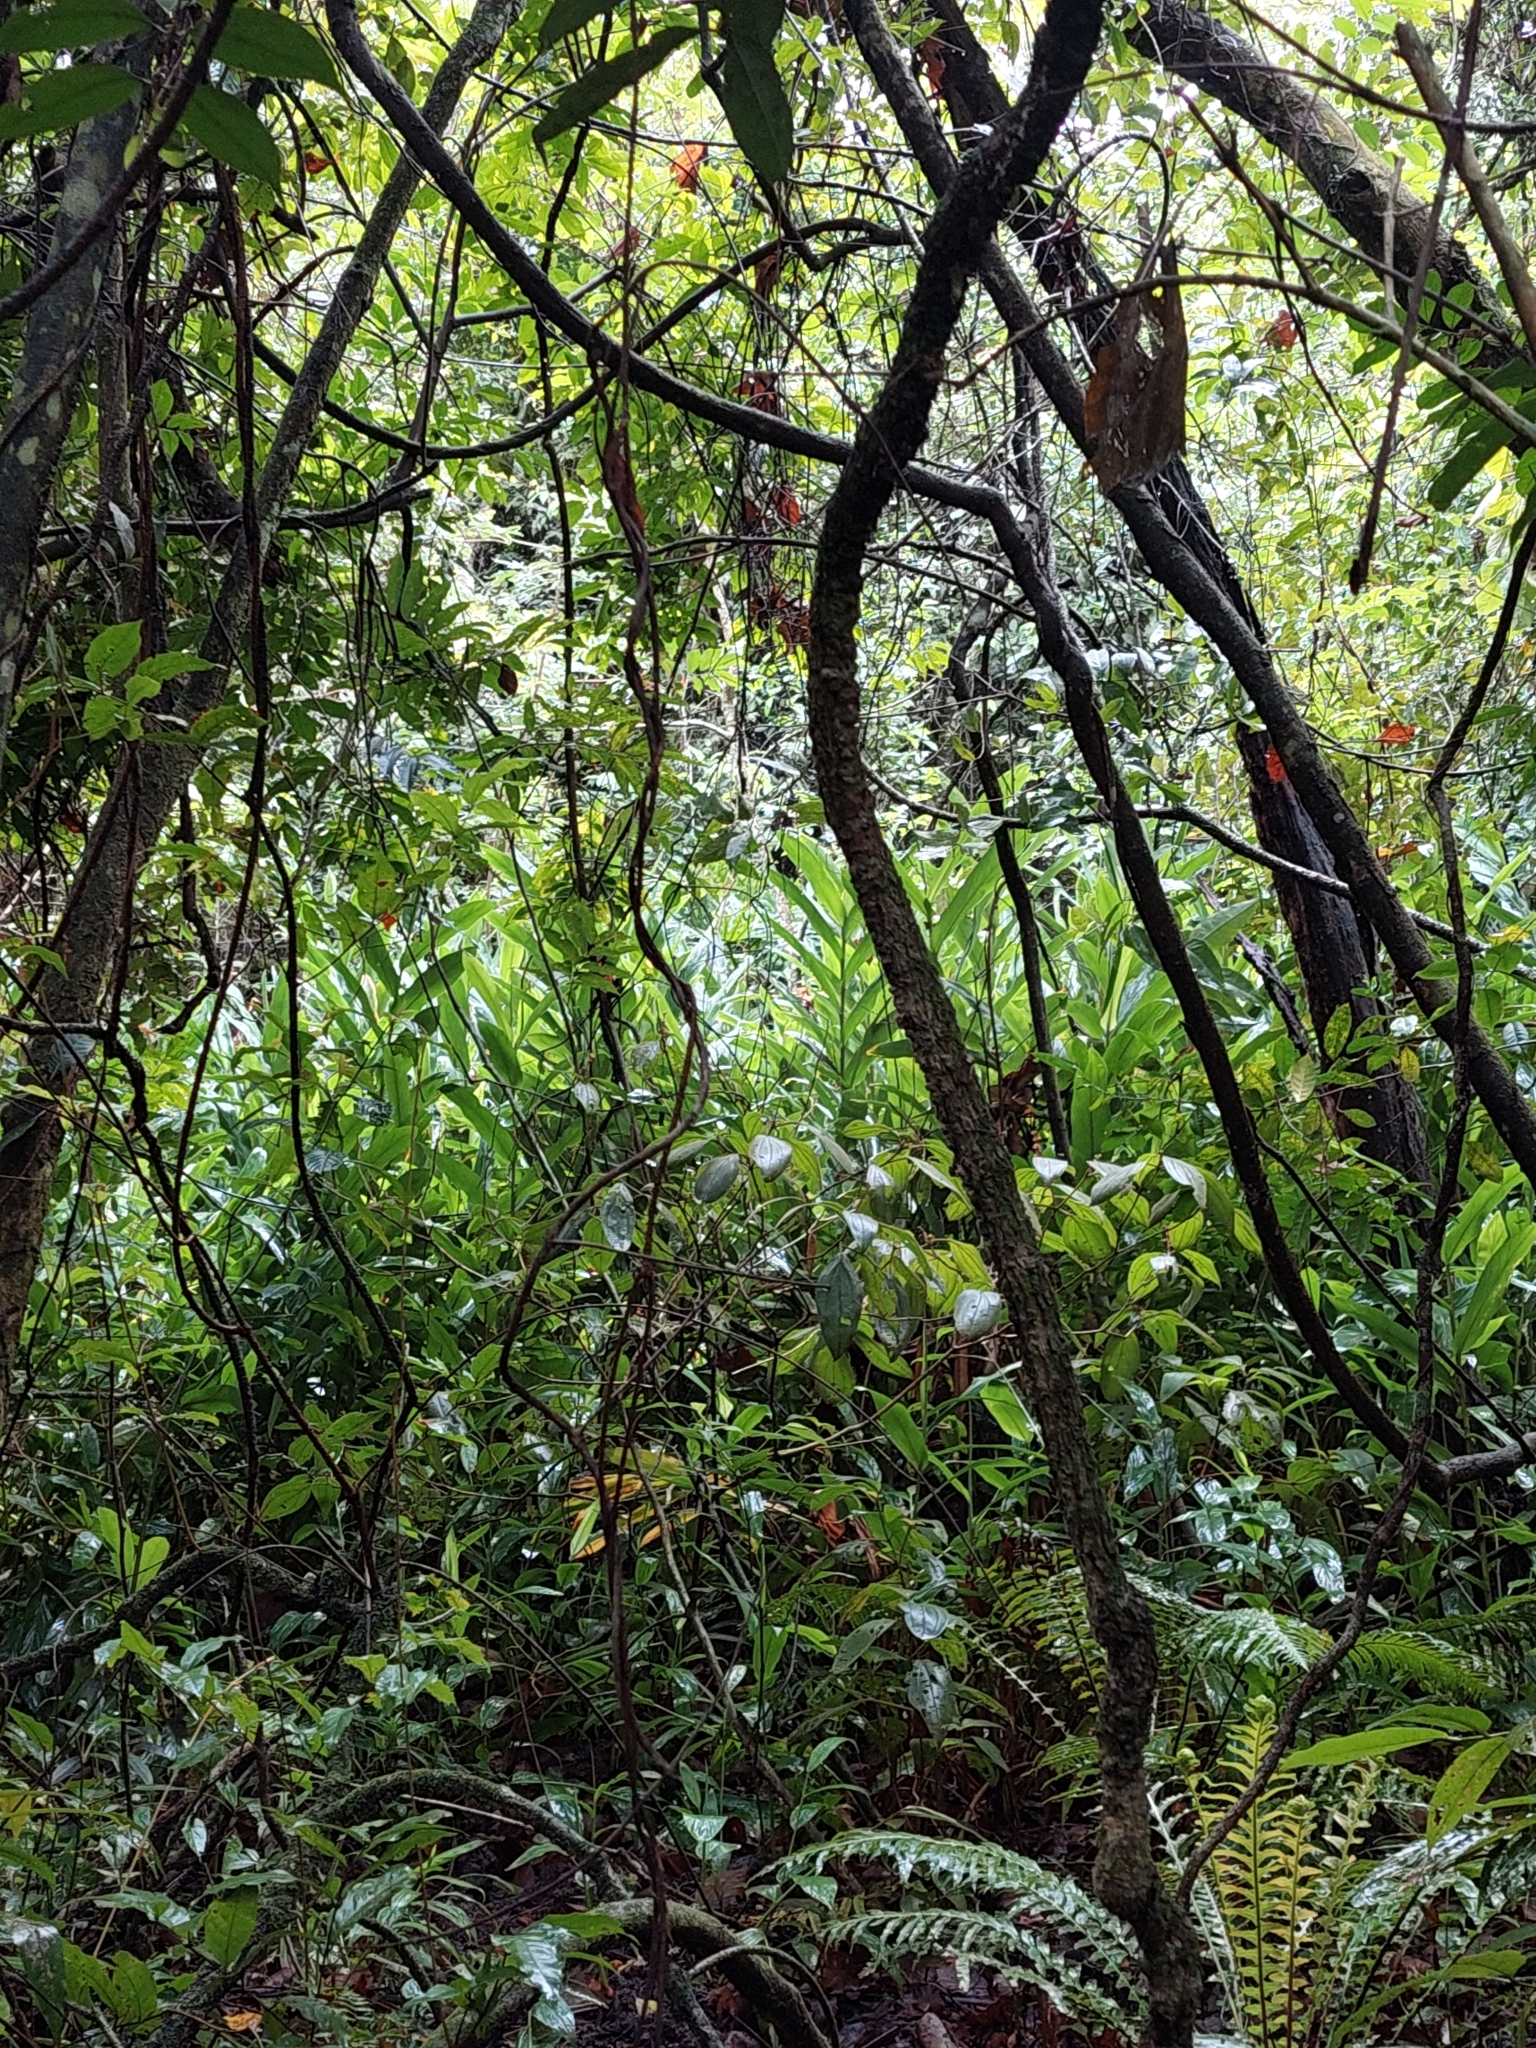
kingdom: Plantae
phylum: Tracheophyta
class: Liliopsida
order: Zingiberales
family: Zingiberaceae
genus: Hedychium
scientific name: Hedychium coronarium
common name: White garland-lily
